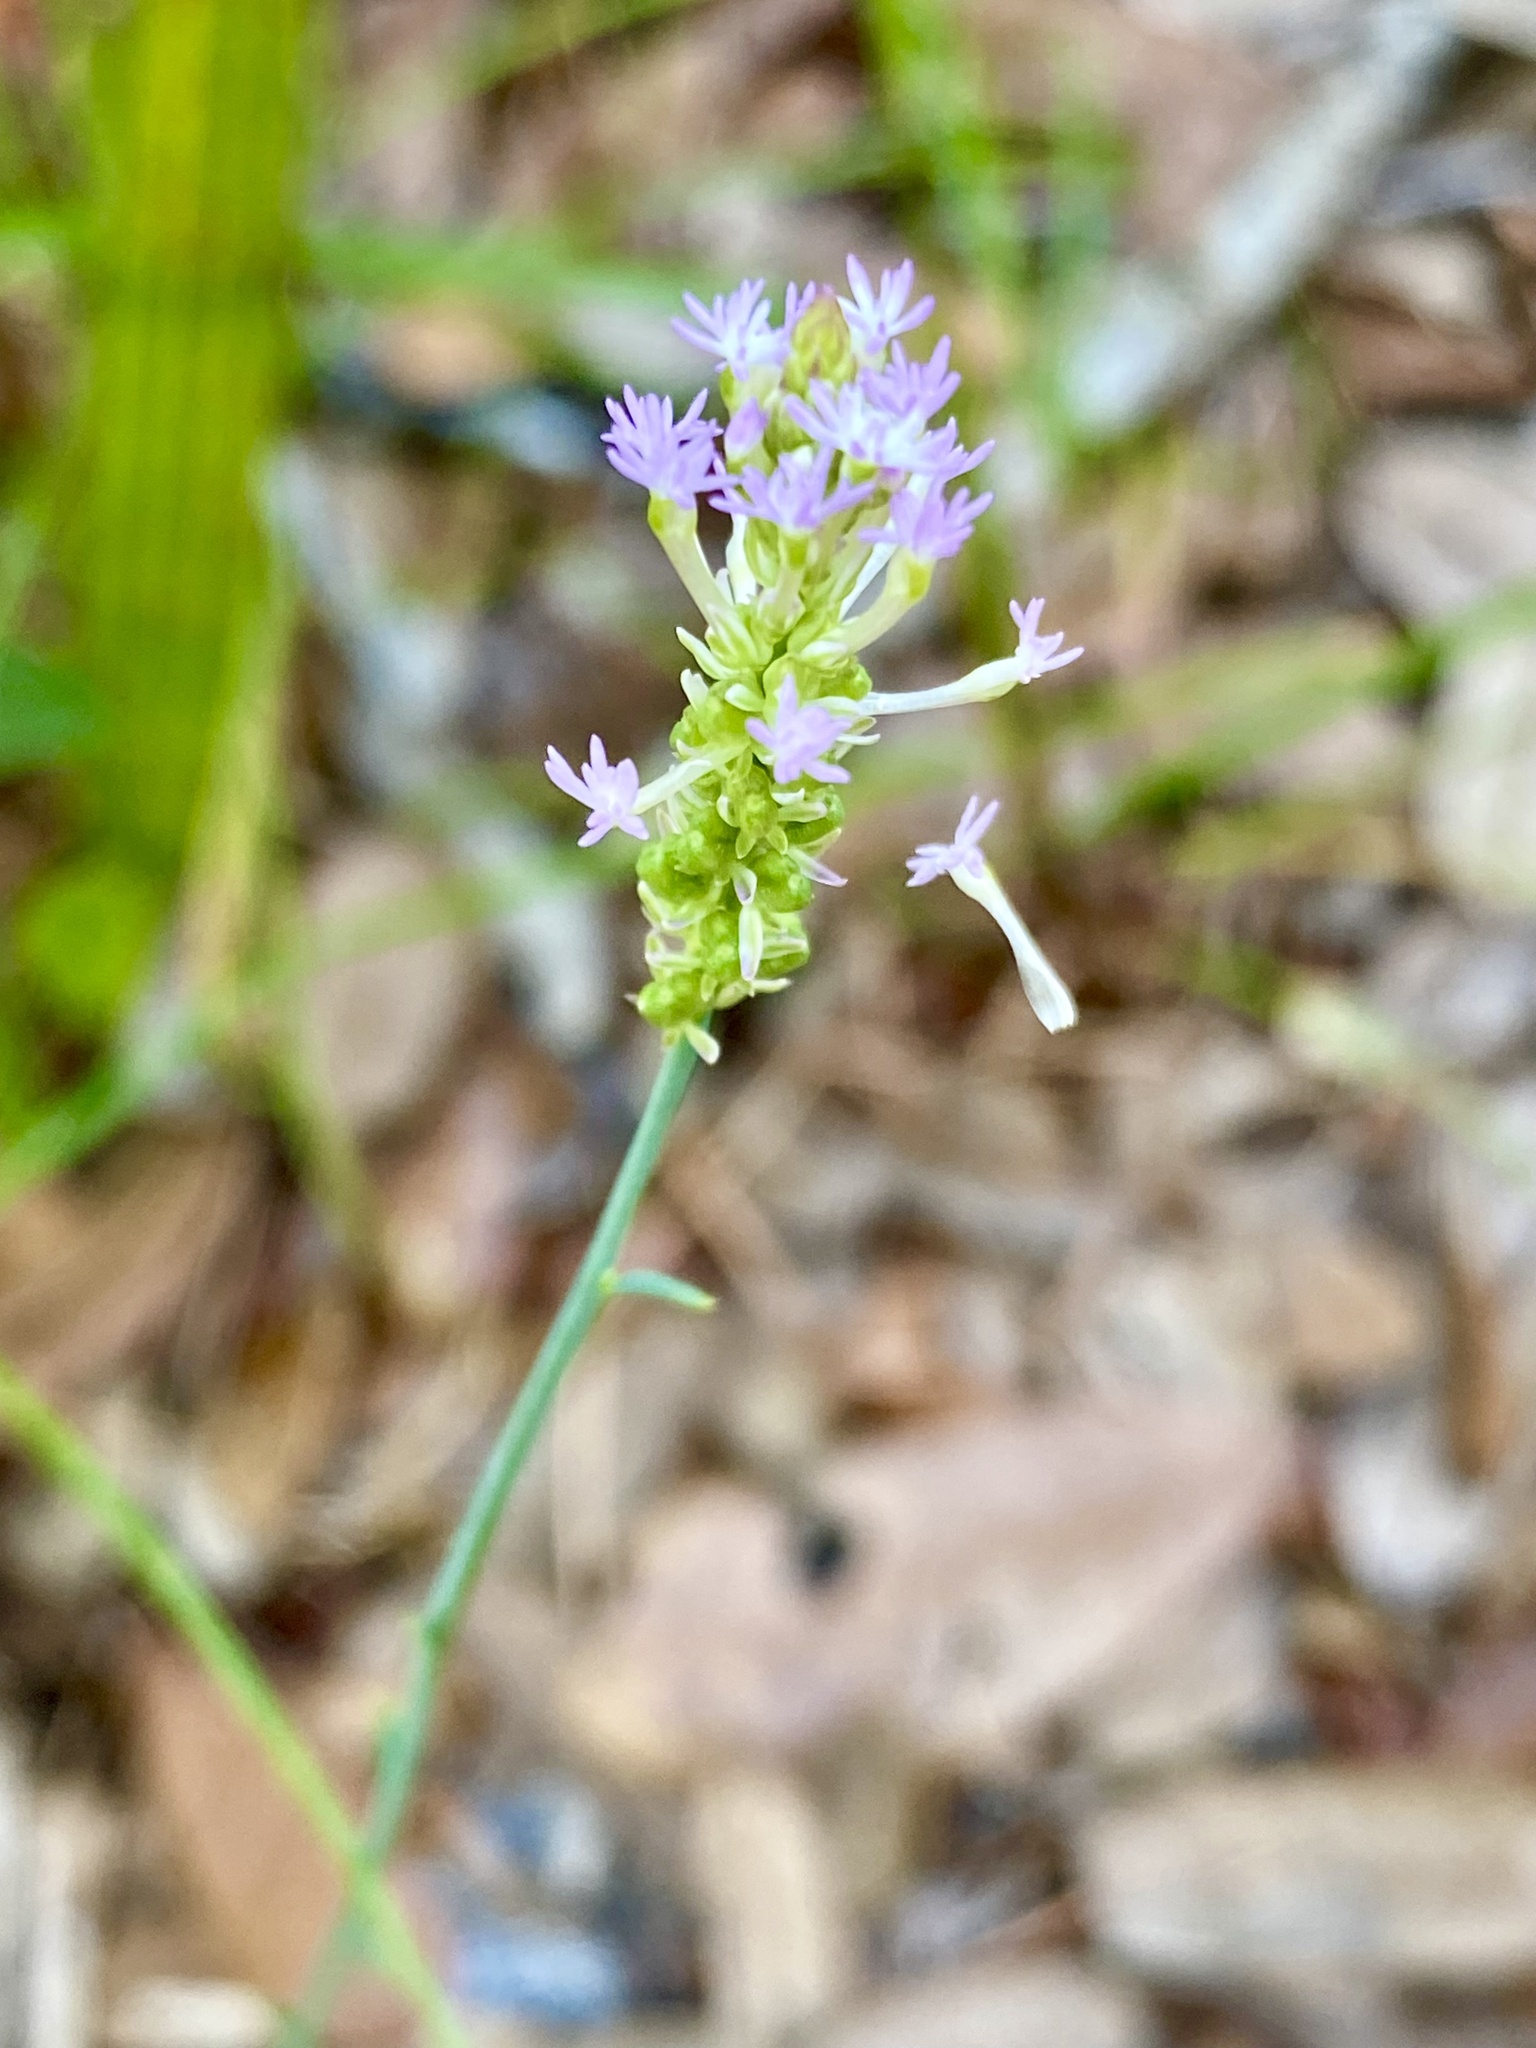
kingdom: Plantae
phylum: Tracheophyta
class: Magnoliopsida
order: Fabales
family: Polygalaceae
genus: Polygala
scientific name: Polygala incarnata
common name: Pink milkwort
